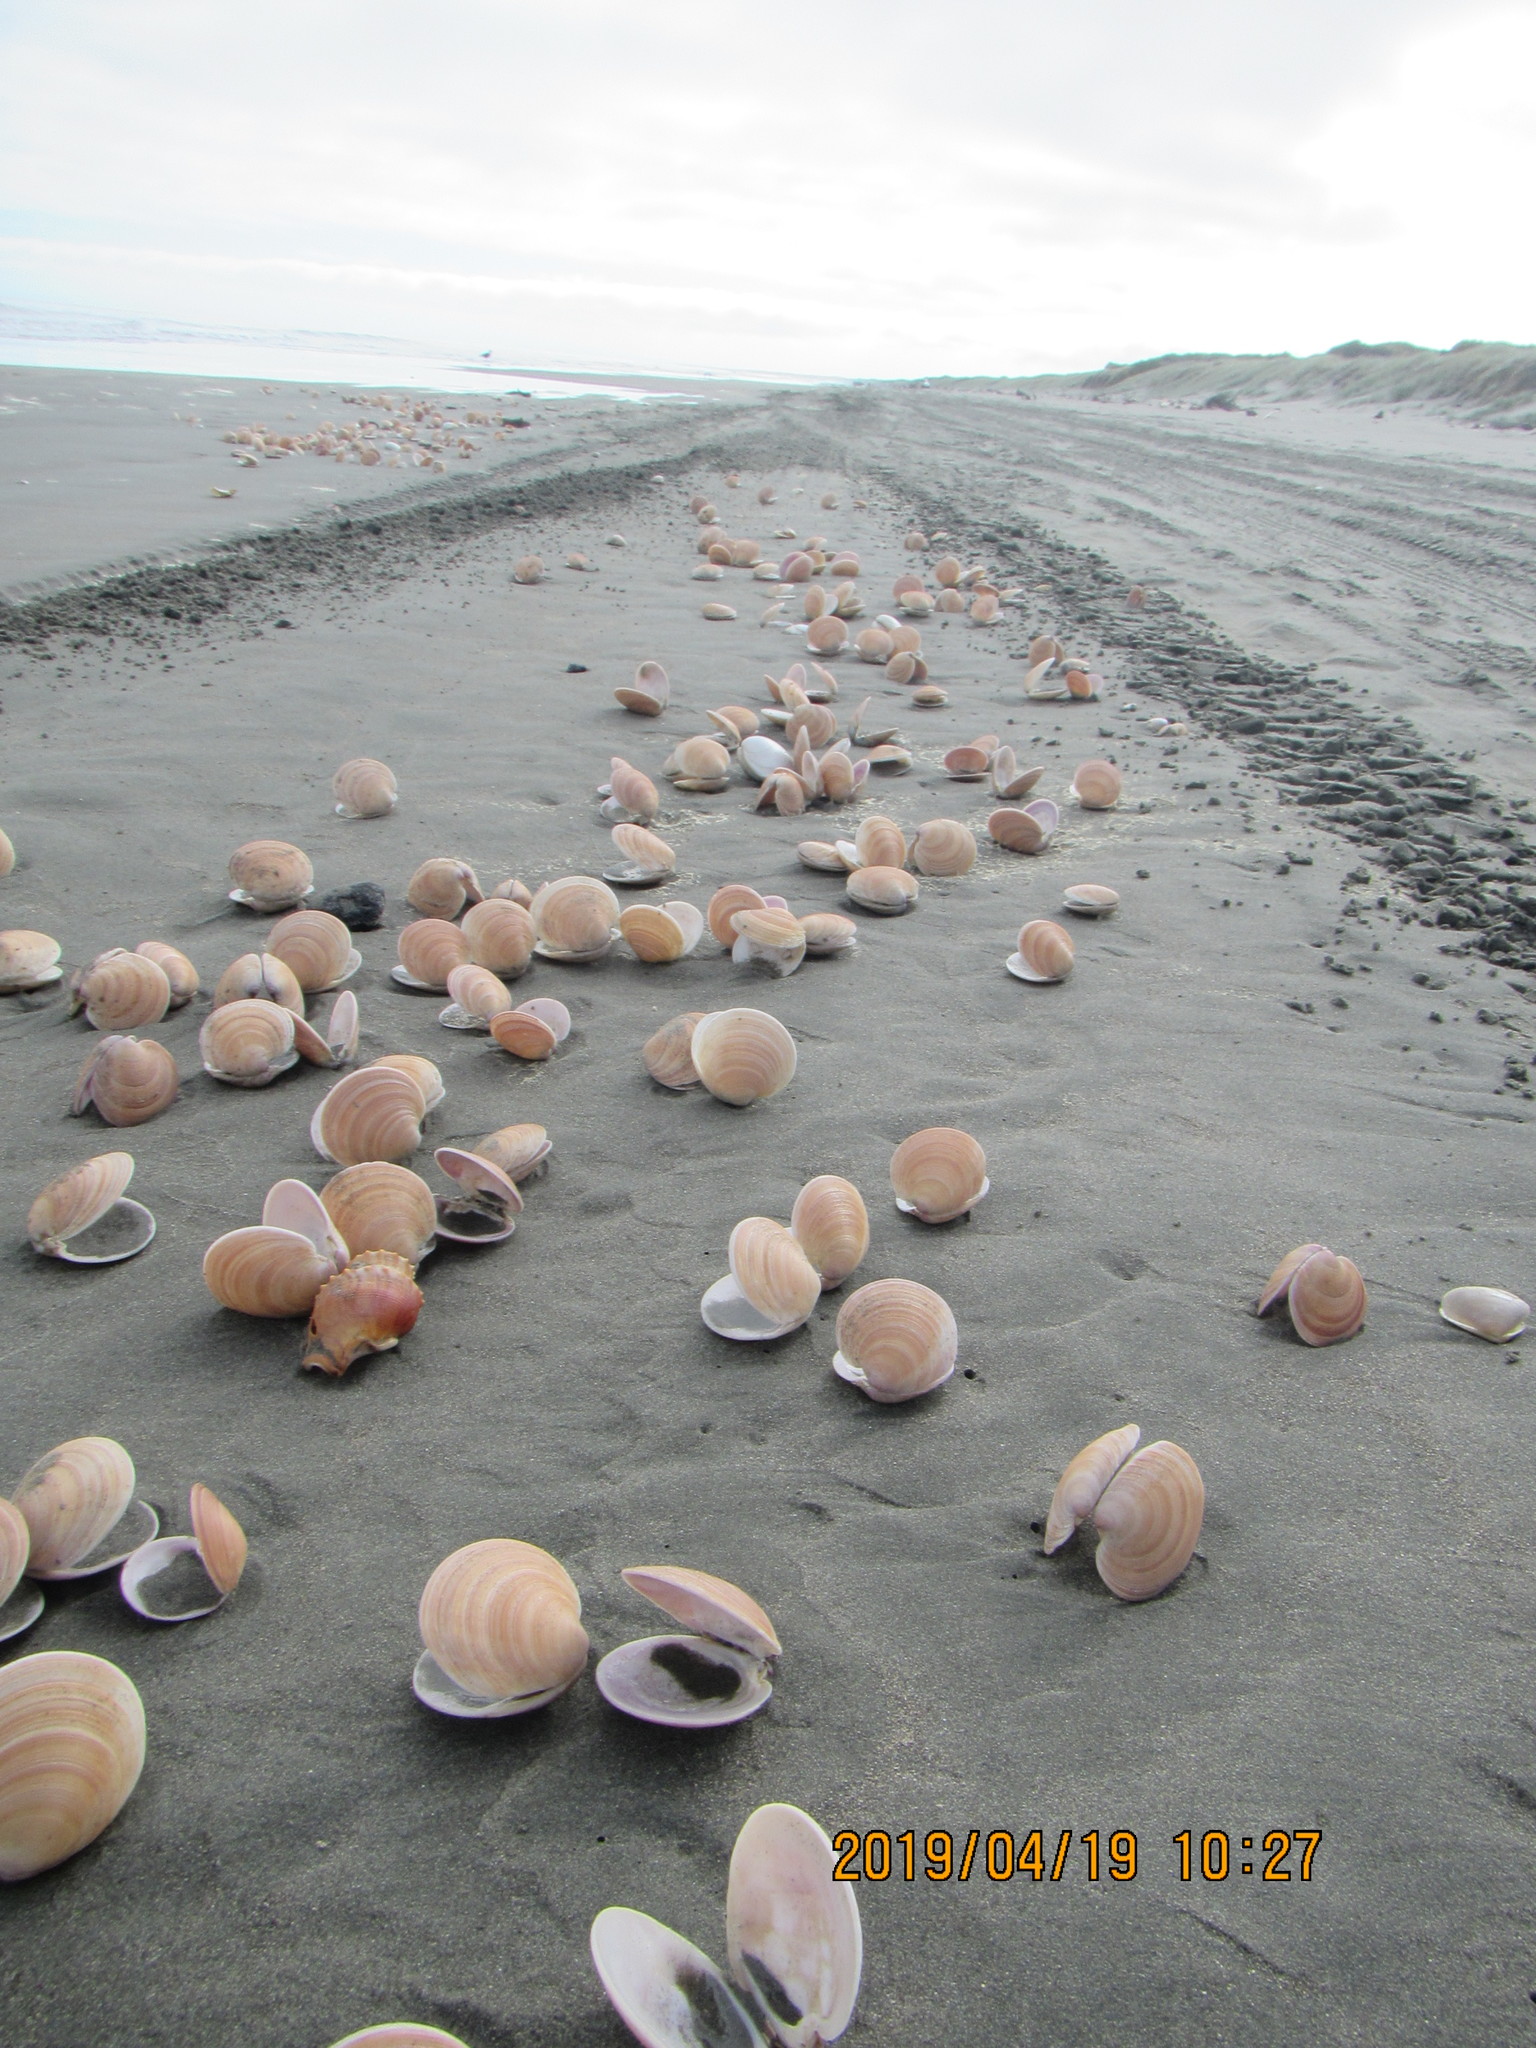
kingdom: Animalia
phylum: Mollusca
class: Bivalvia
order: Venerida
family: Veneridae
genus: Dosinia
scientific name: Dosinia anus
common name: Old-woman dosinia
